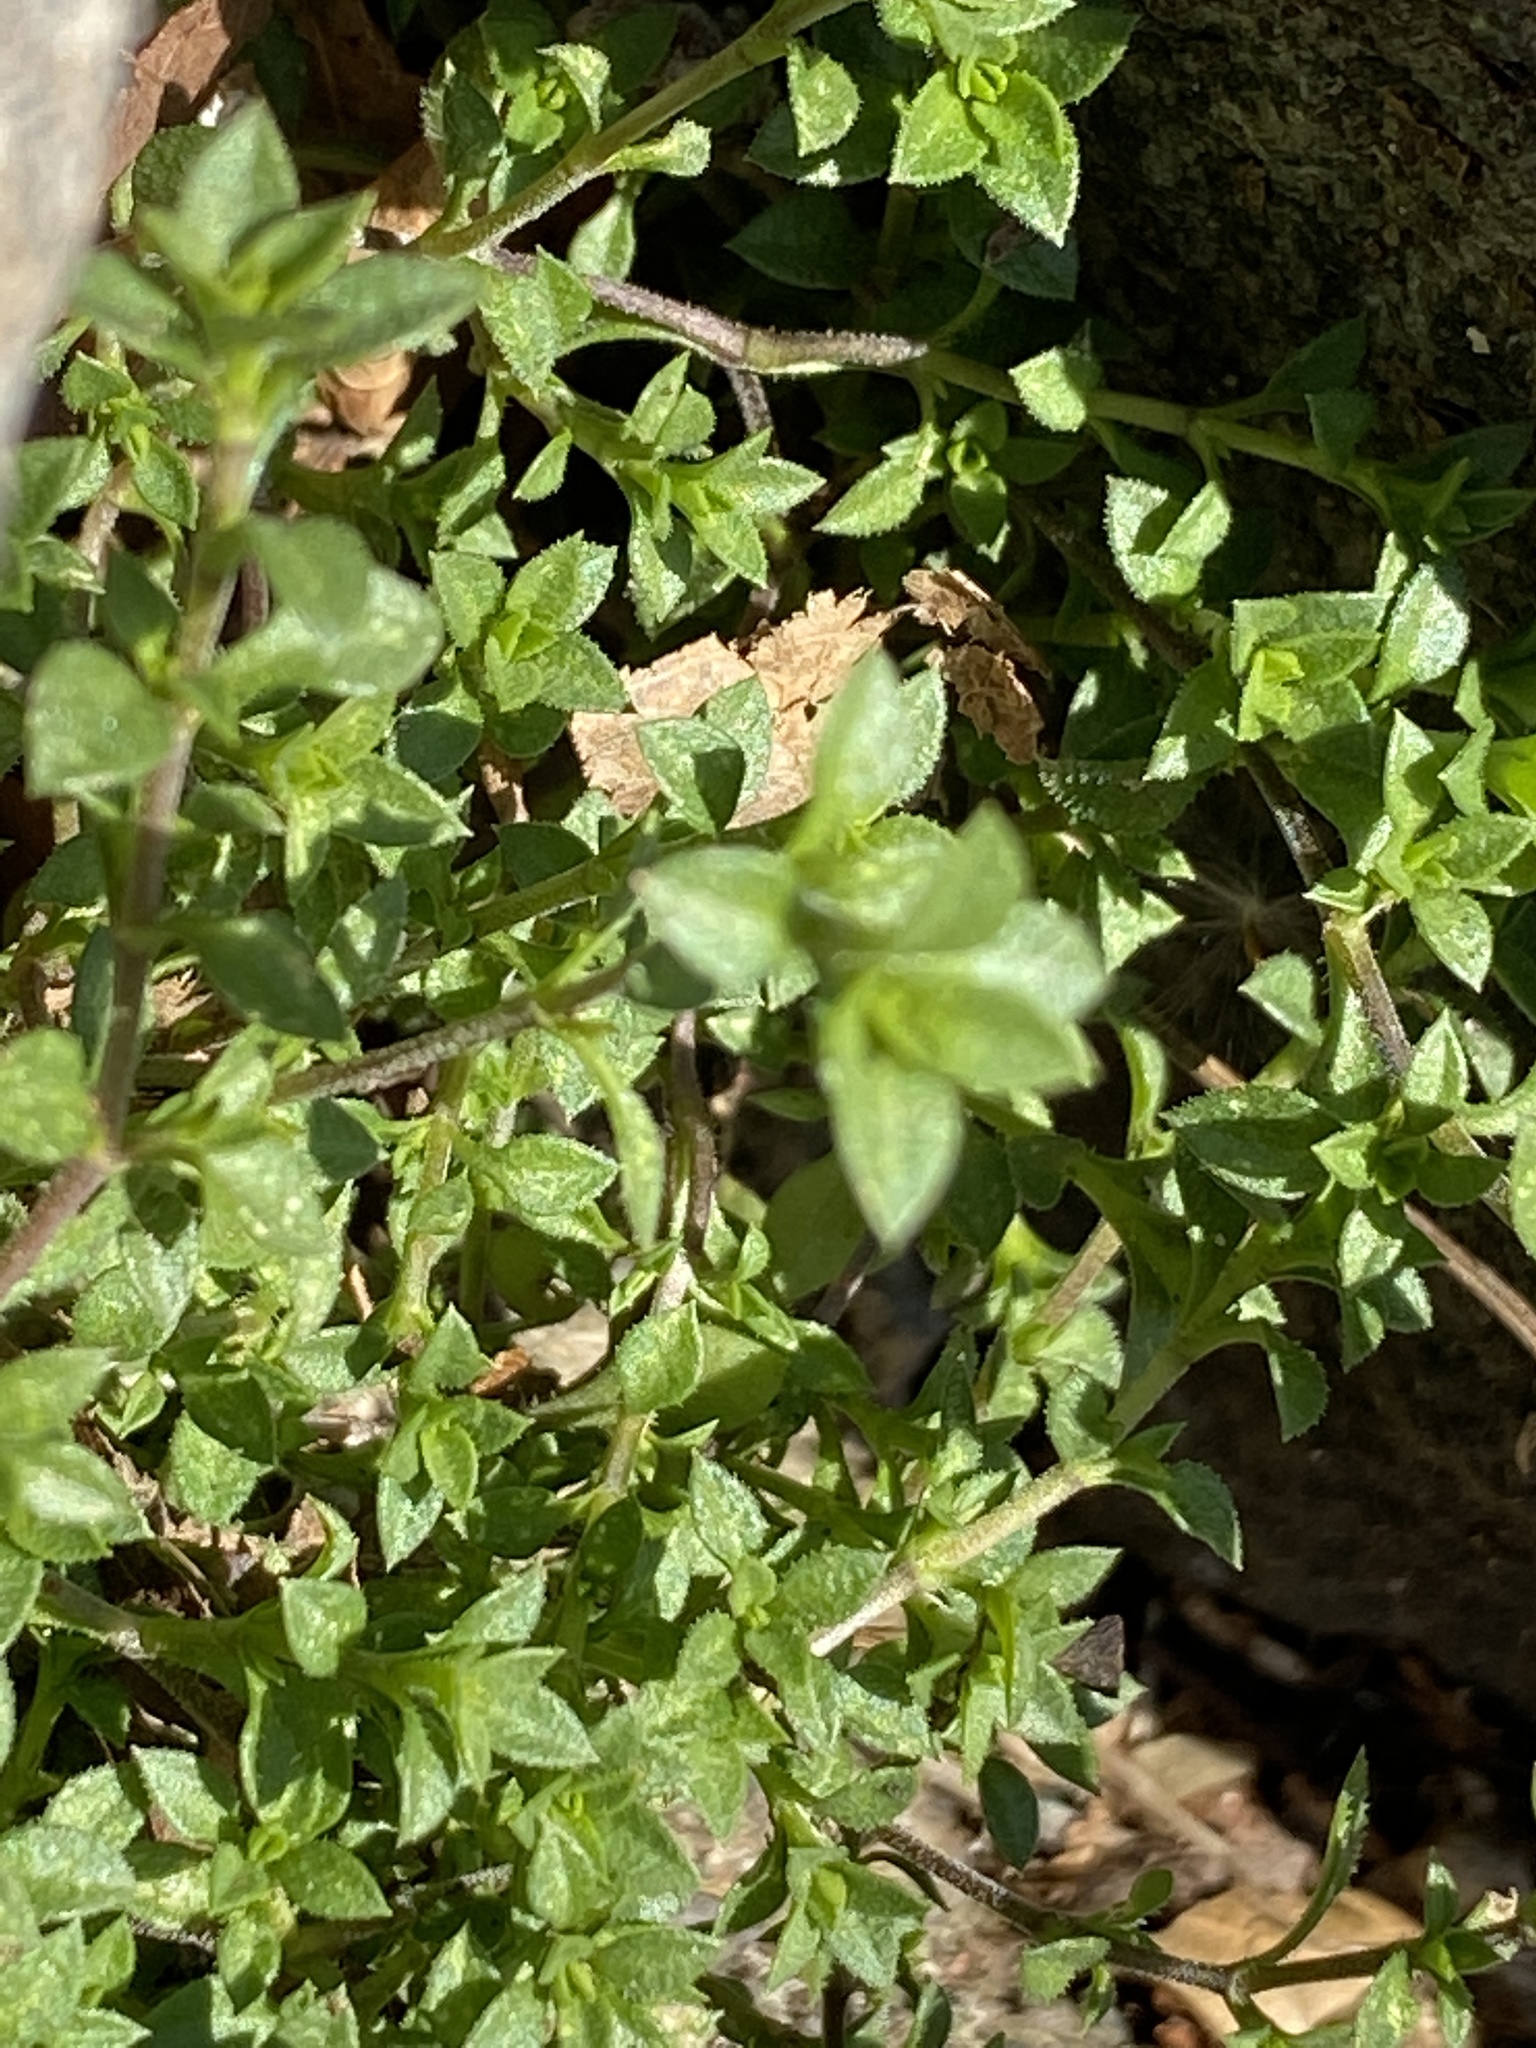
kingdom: Plantae
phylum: Tracheophyta
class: Magnoliopsida
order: Caryophyllales
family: Caryophyllaceae
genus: Arenaria
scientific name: Arenaria serpyllifolia
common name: Thyme-leaved sandwort
